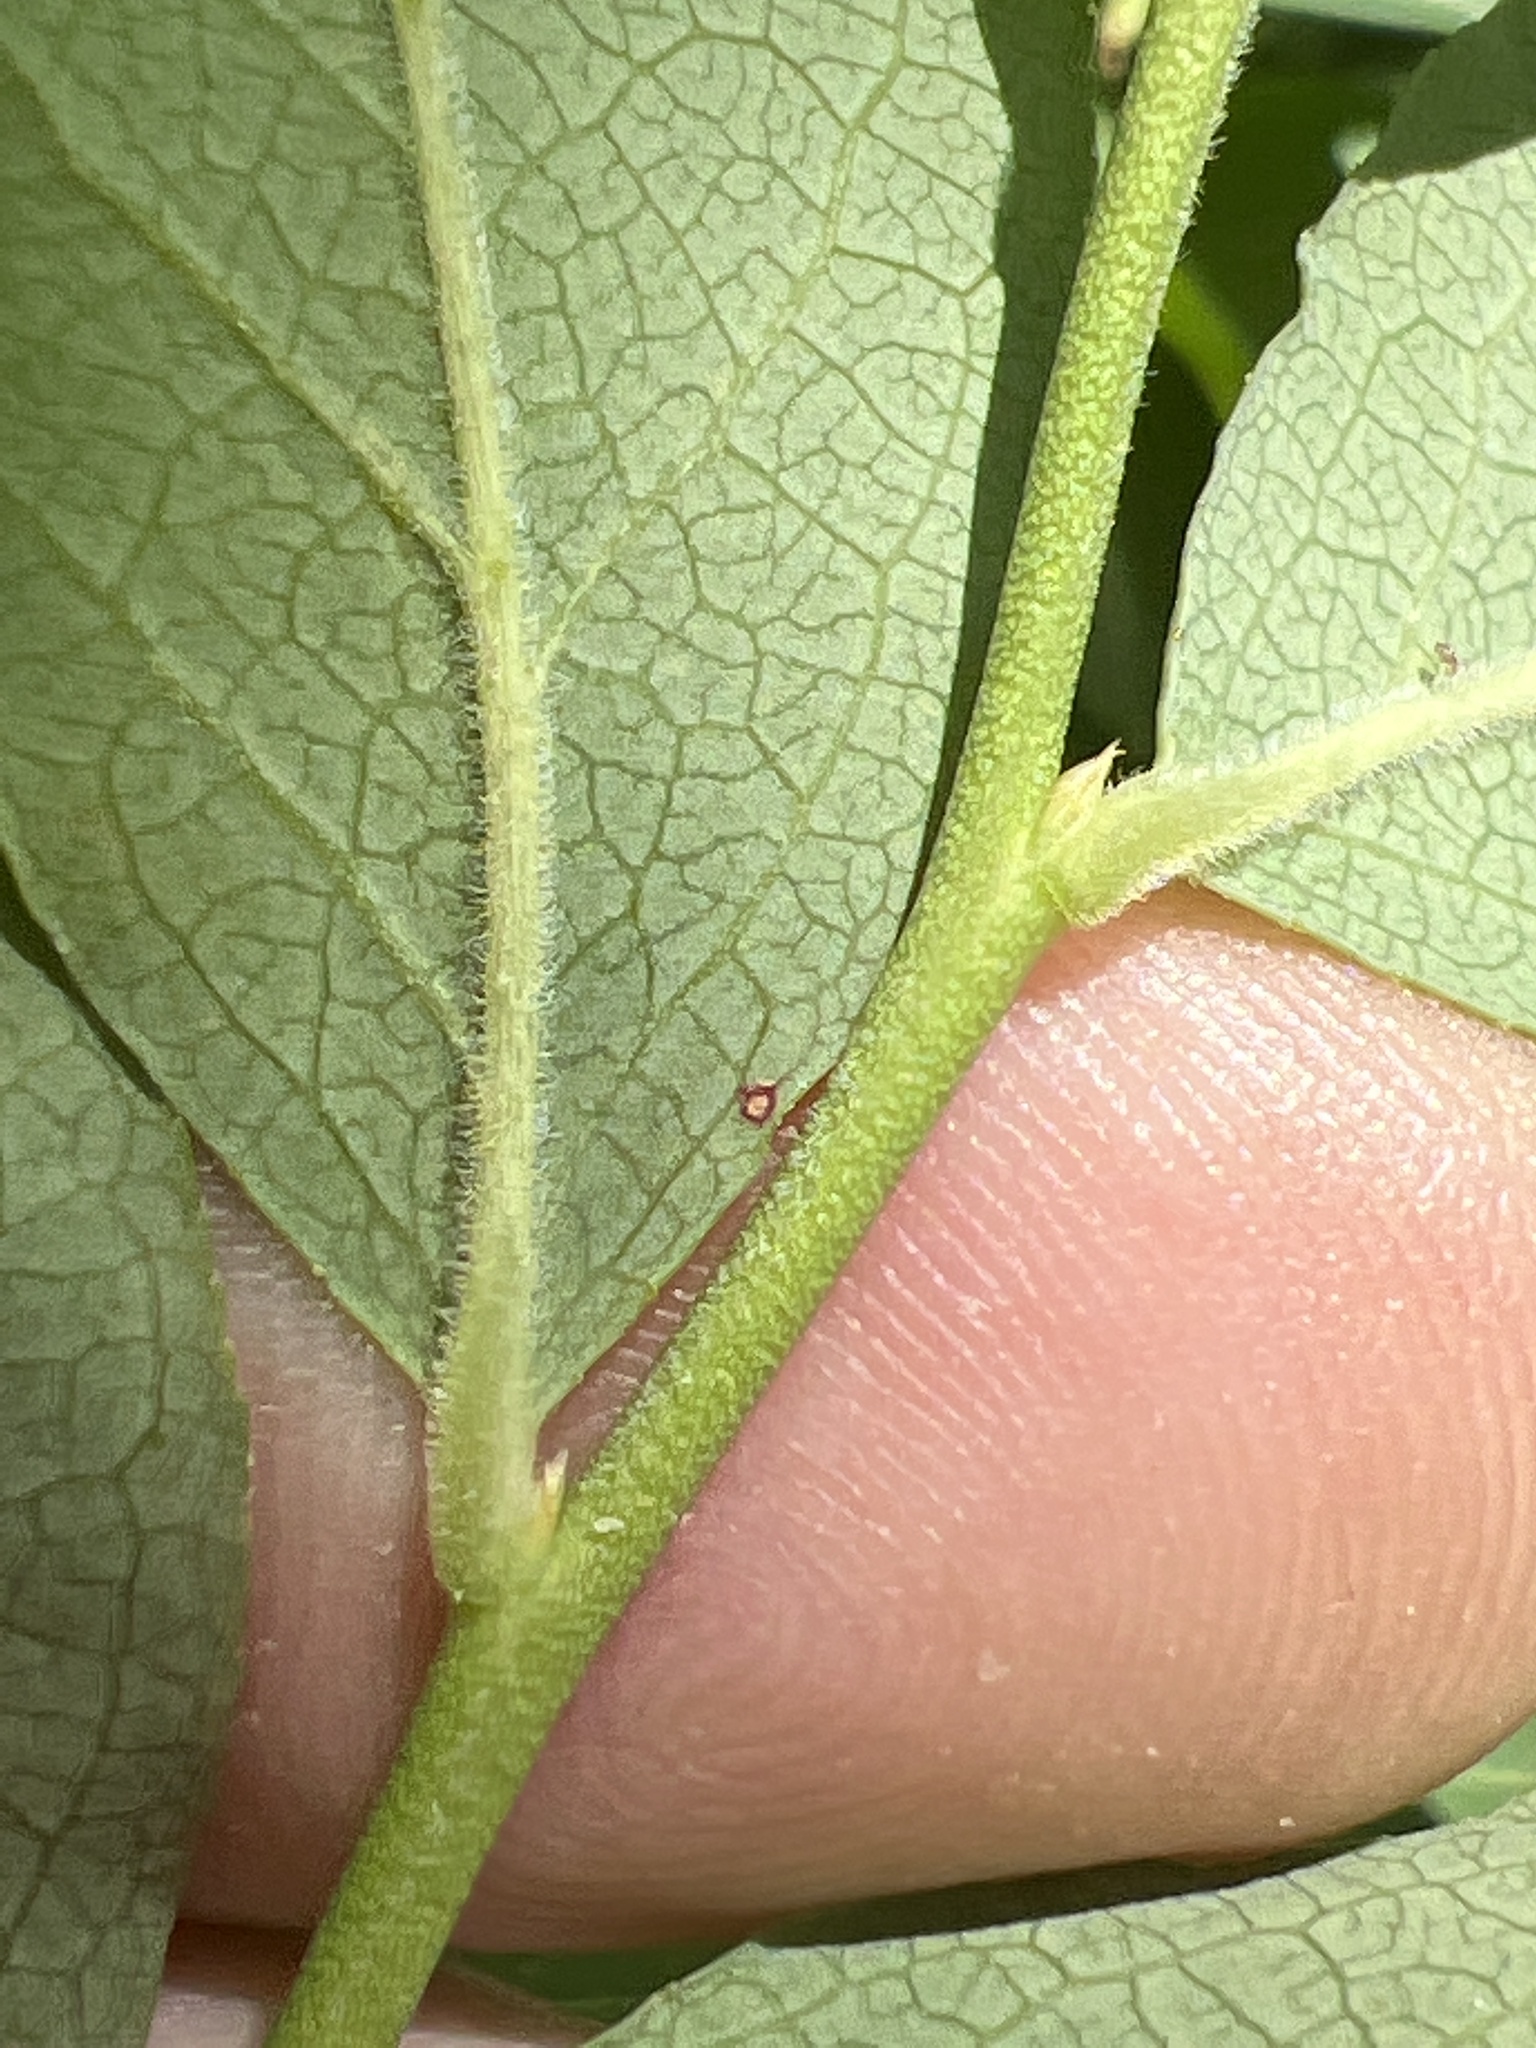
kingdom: Plantae
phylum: Tracheophyta
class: Magnoliopsida
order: Ericales
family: Ericaceae
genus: Vaccinium
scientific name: Vaccinium pallidum
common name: Blue ridge blueberry
